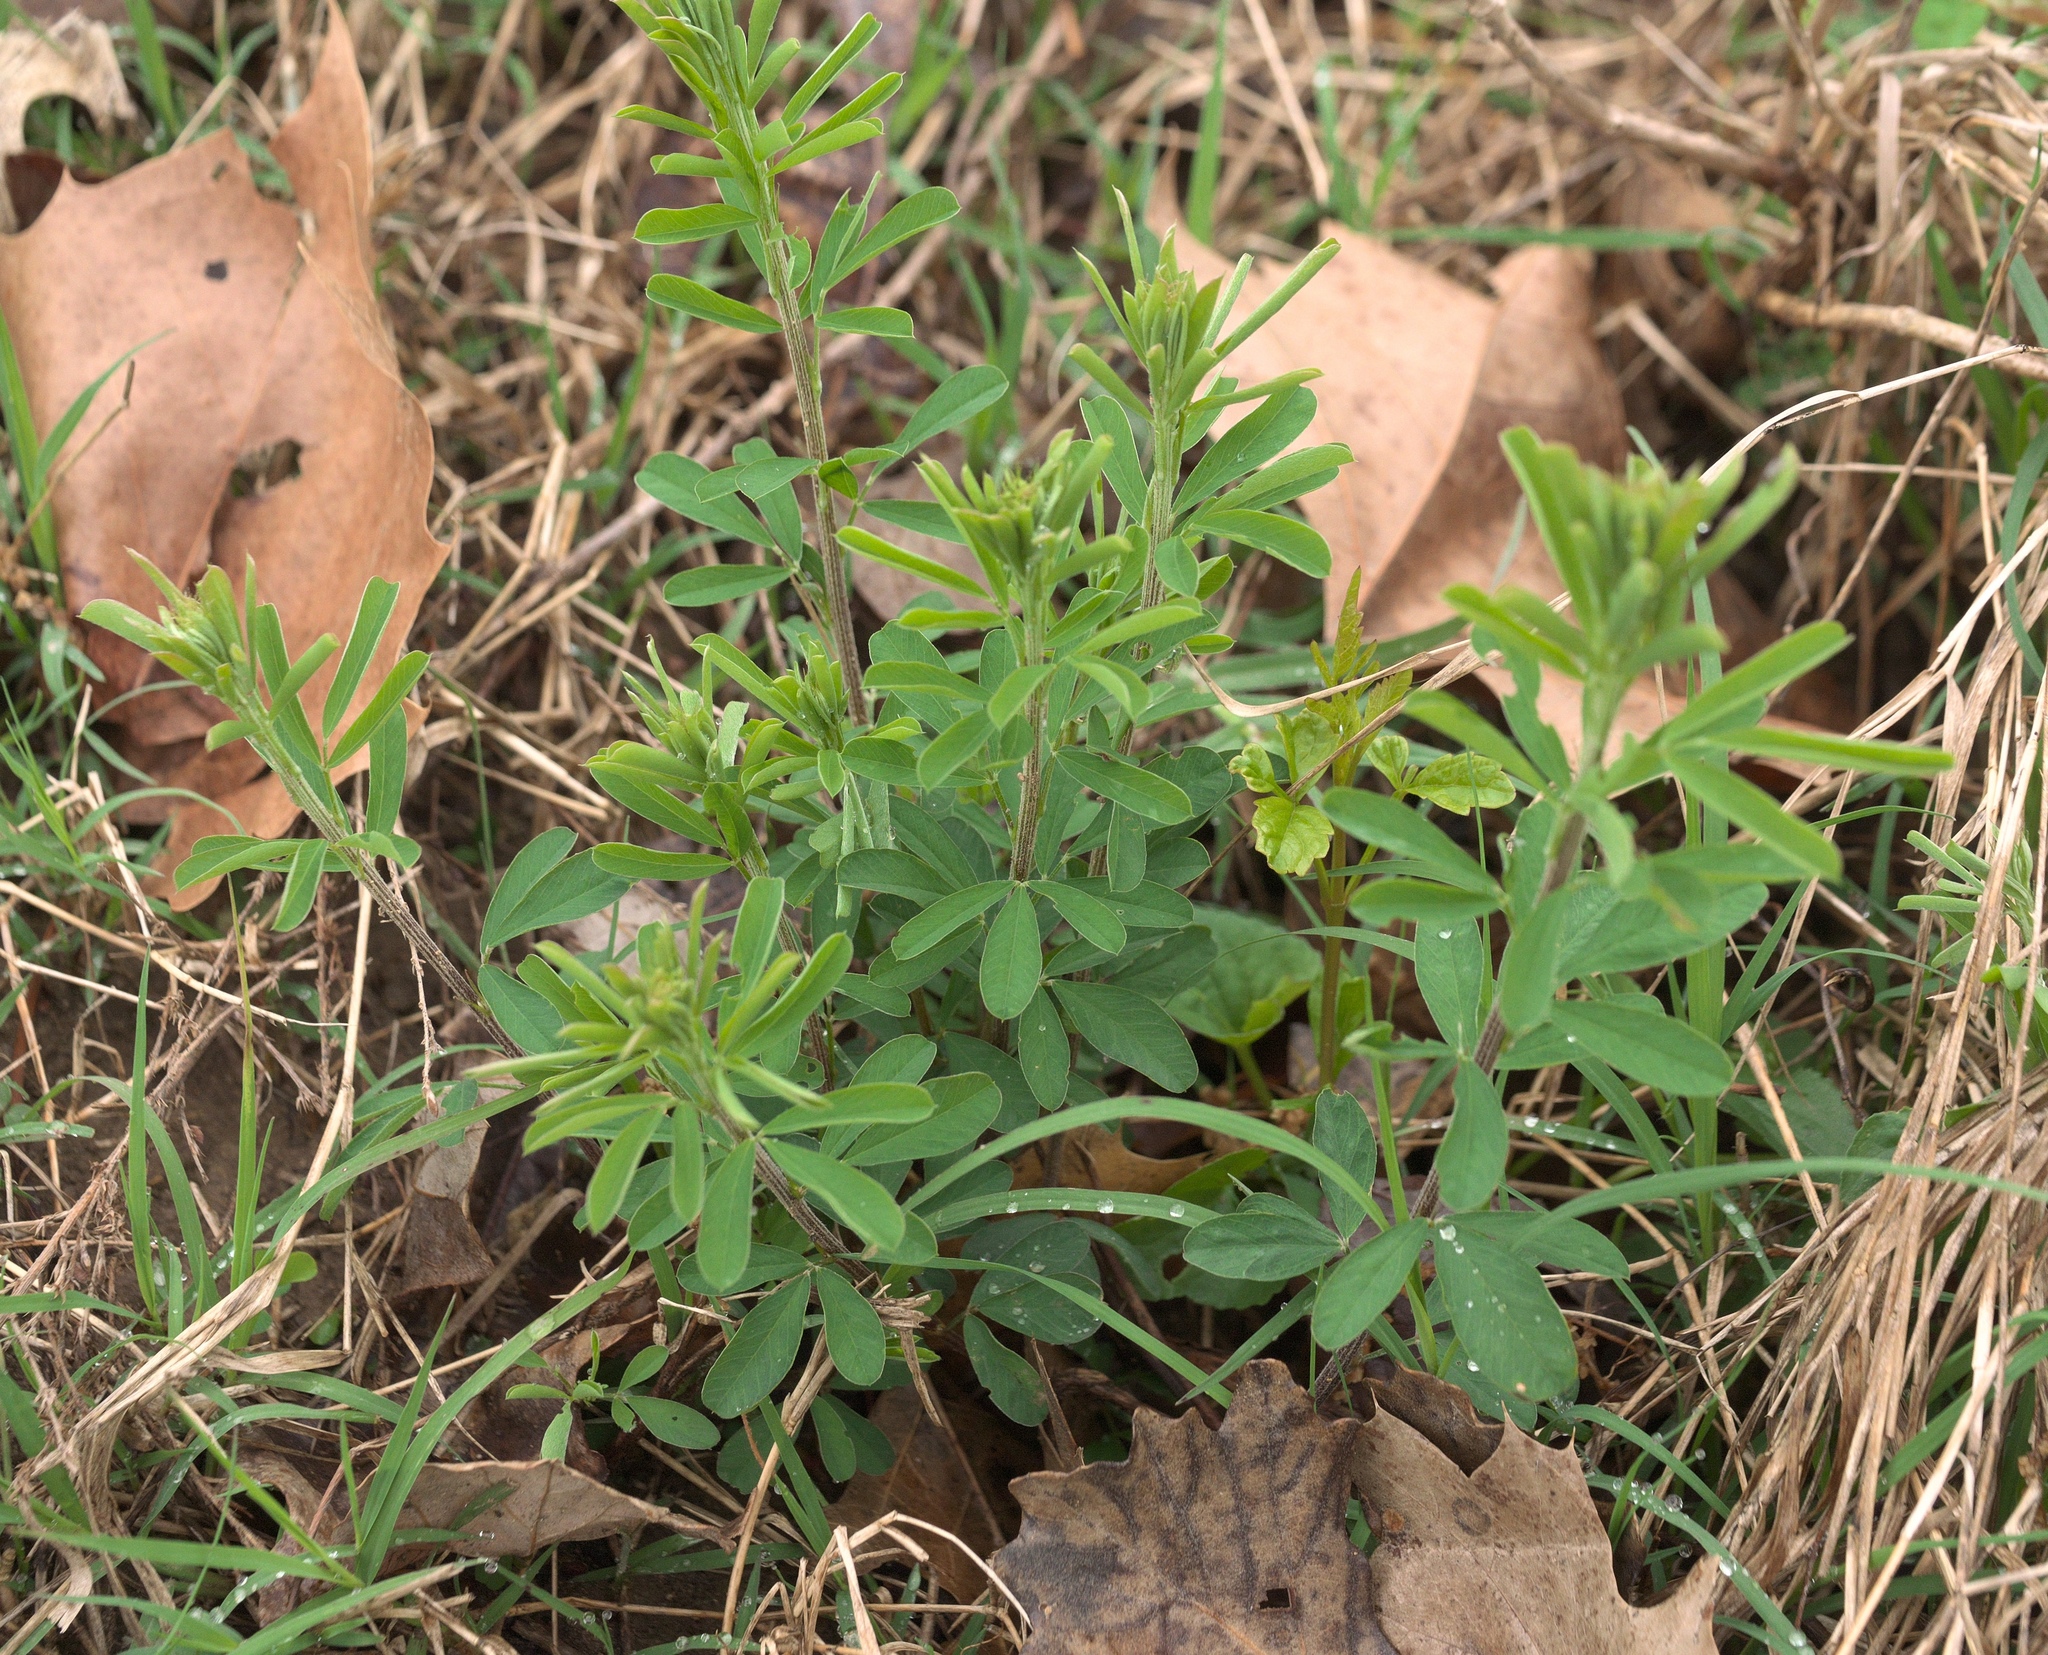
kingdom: Plantae
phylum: Tracheophyta
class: Magnoliopsida
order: Fabales
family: Fabaceae
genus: Lespedeza
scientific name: Lespedeza cuneata
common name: Chinese bush-clover
